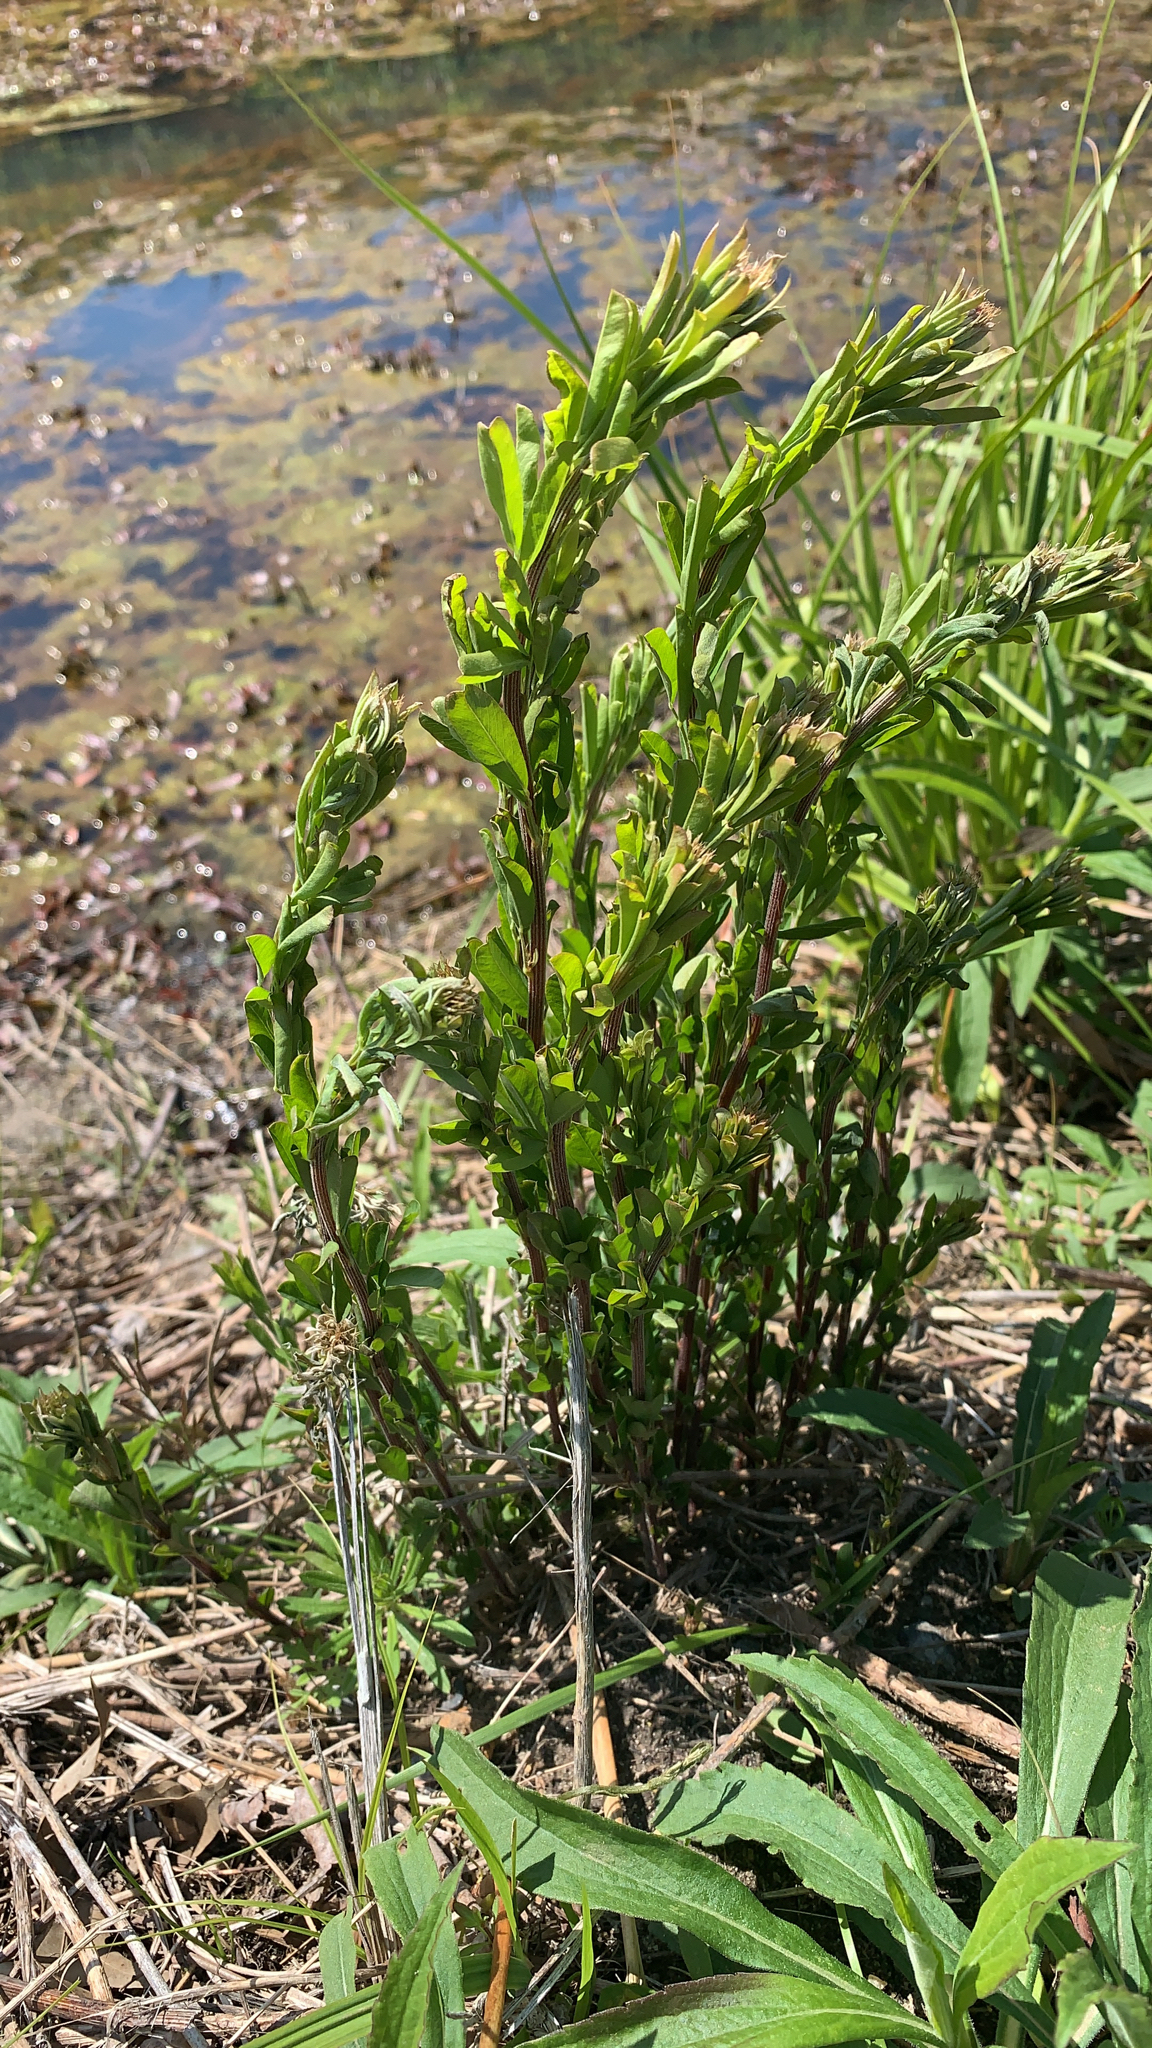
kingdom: Plantae
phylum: Tracheophyta
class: Magnoliopsida
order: Fabales
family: Fabaceae
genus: Lespedeza
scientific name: Lespedeza cuneata
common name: Chinese bush-clover
